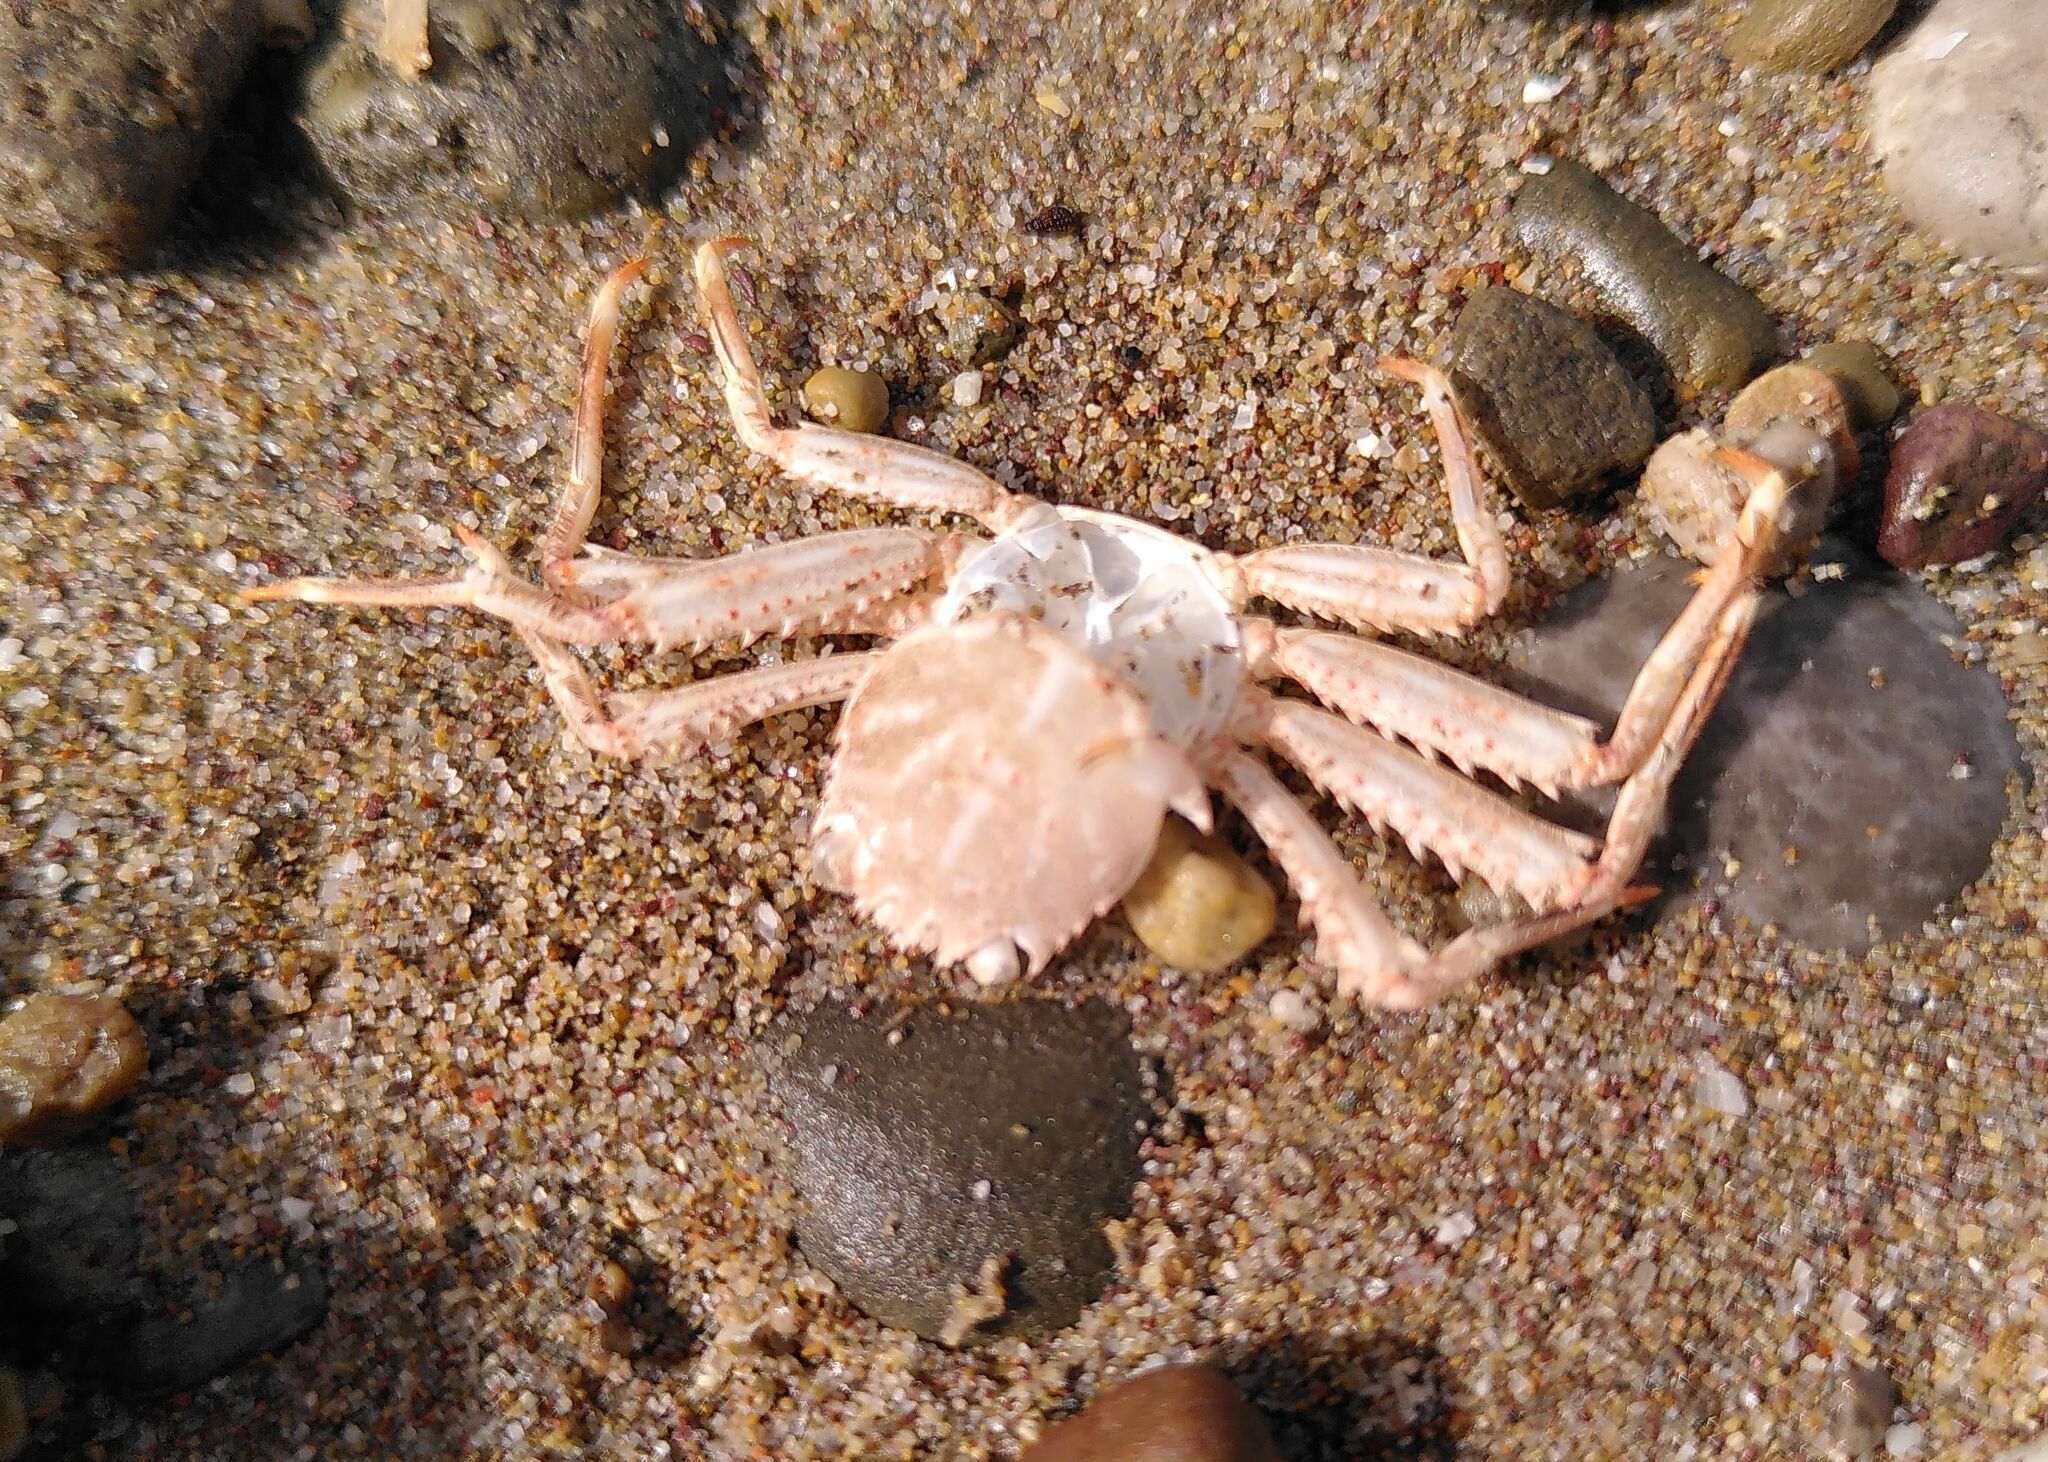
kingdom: Animalia
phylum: Arthropoda
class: Malacostraca
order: Decapoda
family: Percnidae
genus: Percnon
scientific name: Percnon gibbesi
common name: Nimble spray crab
